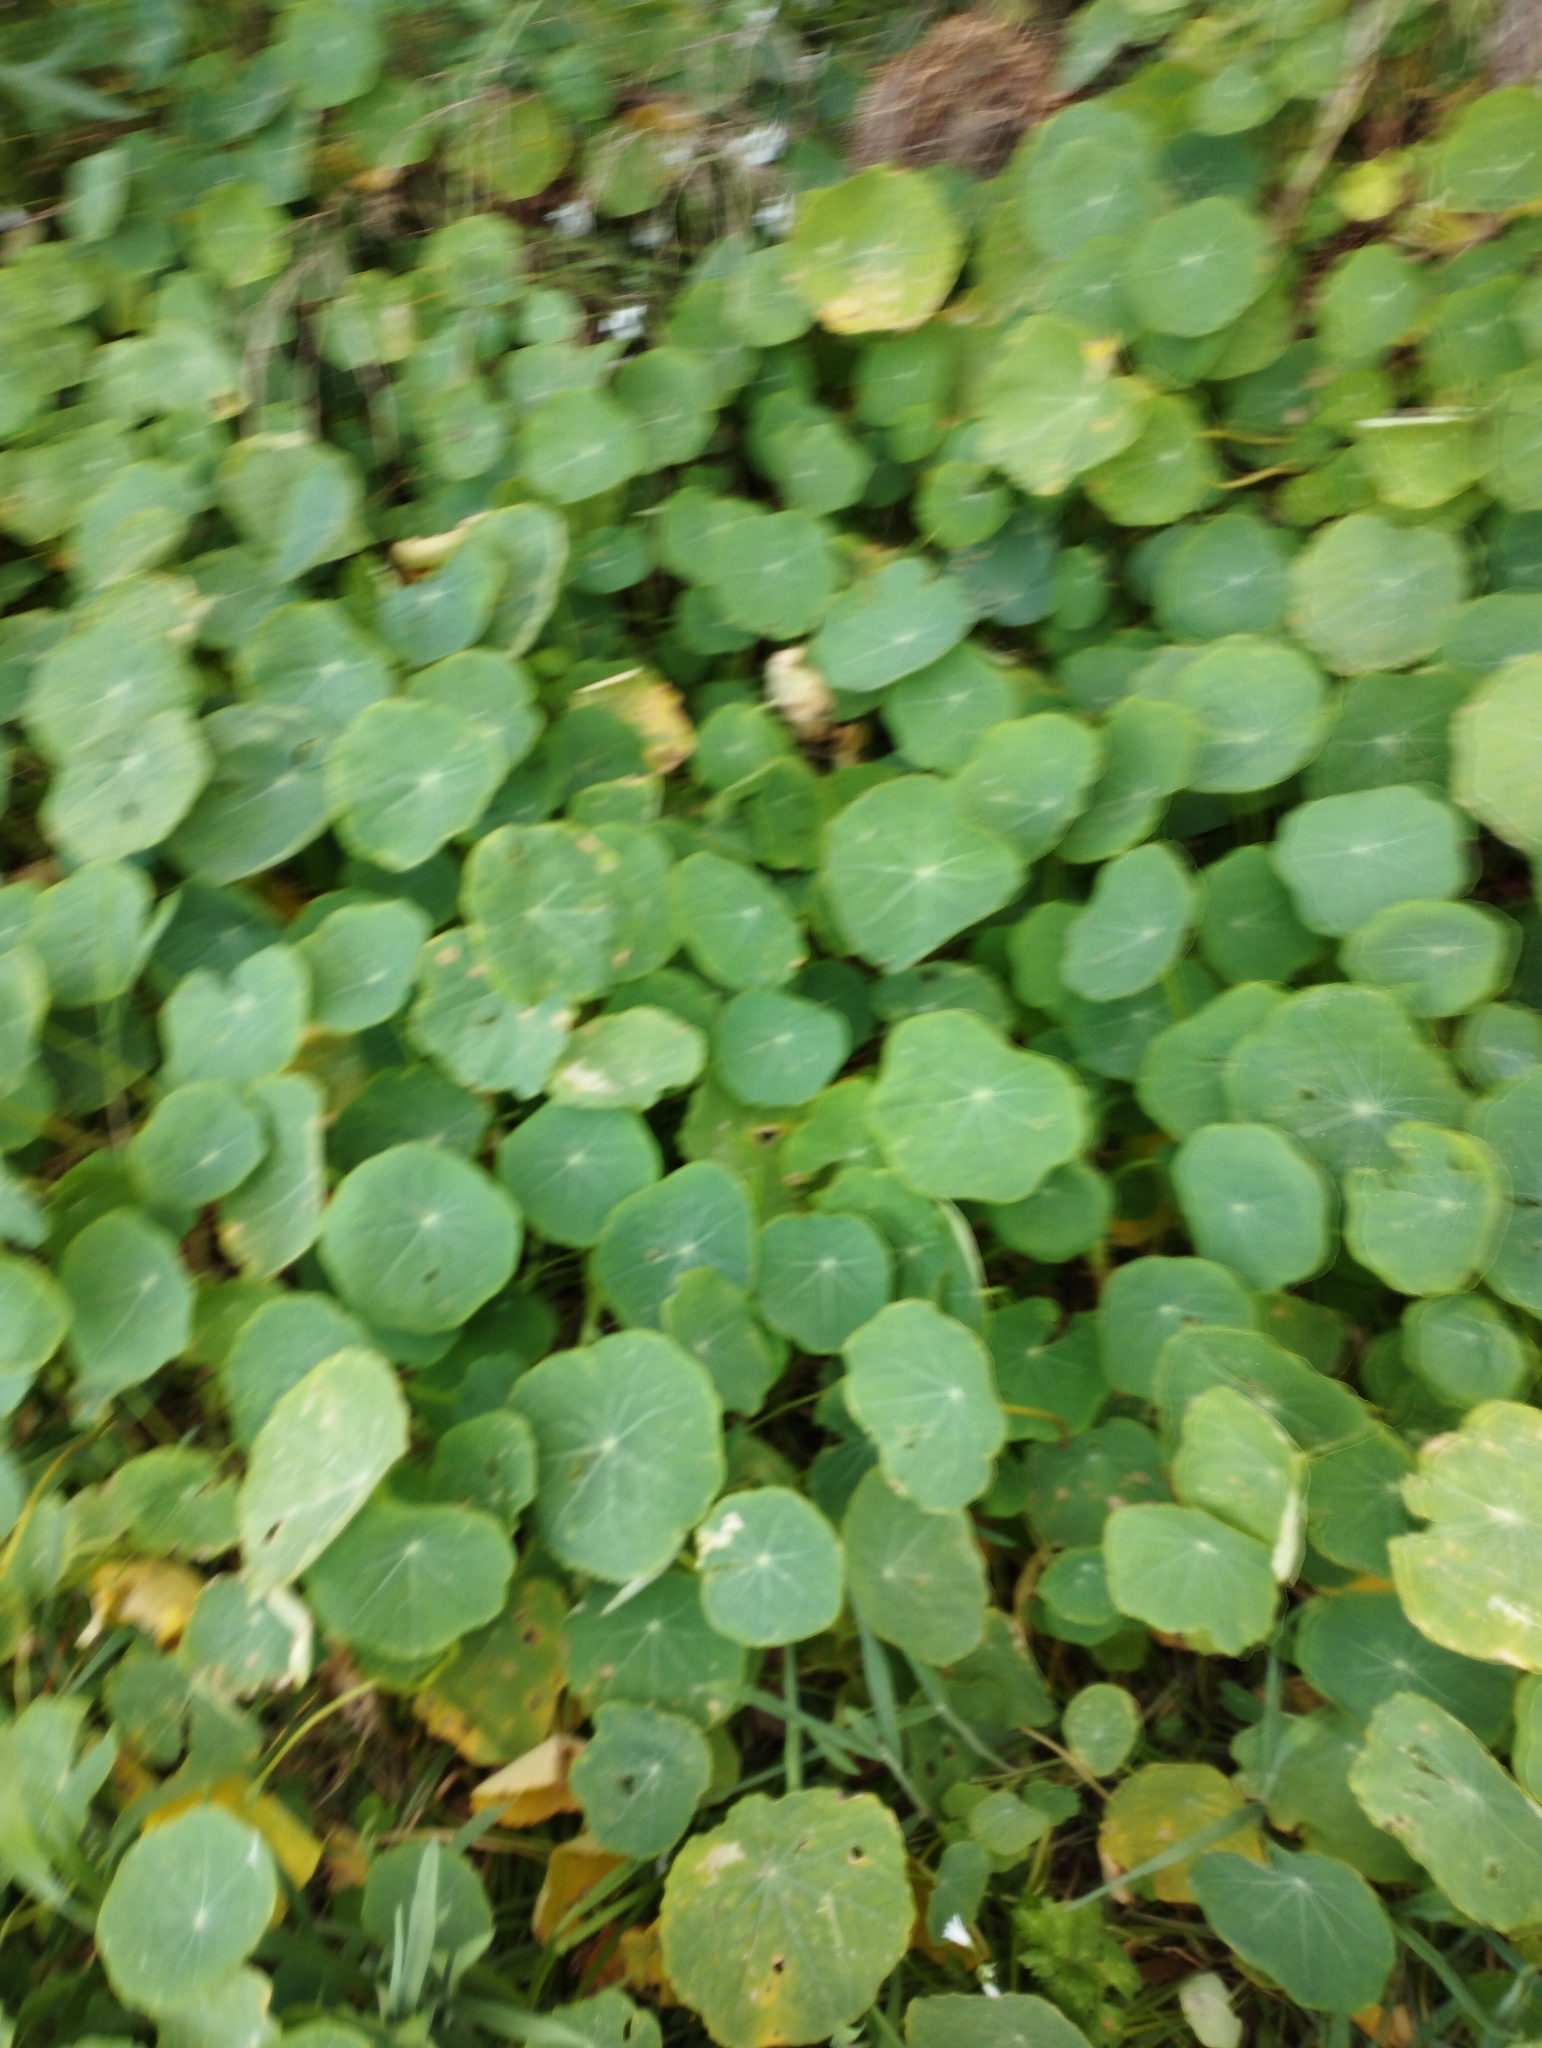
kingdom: Plantae
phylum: Tracheophyta
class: Magnoliopsida
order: Brassicales
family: Tropaeolaceae
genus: Tropaeolum
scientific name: Tropaeolum majus
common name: Nasturtium
